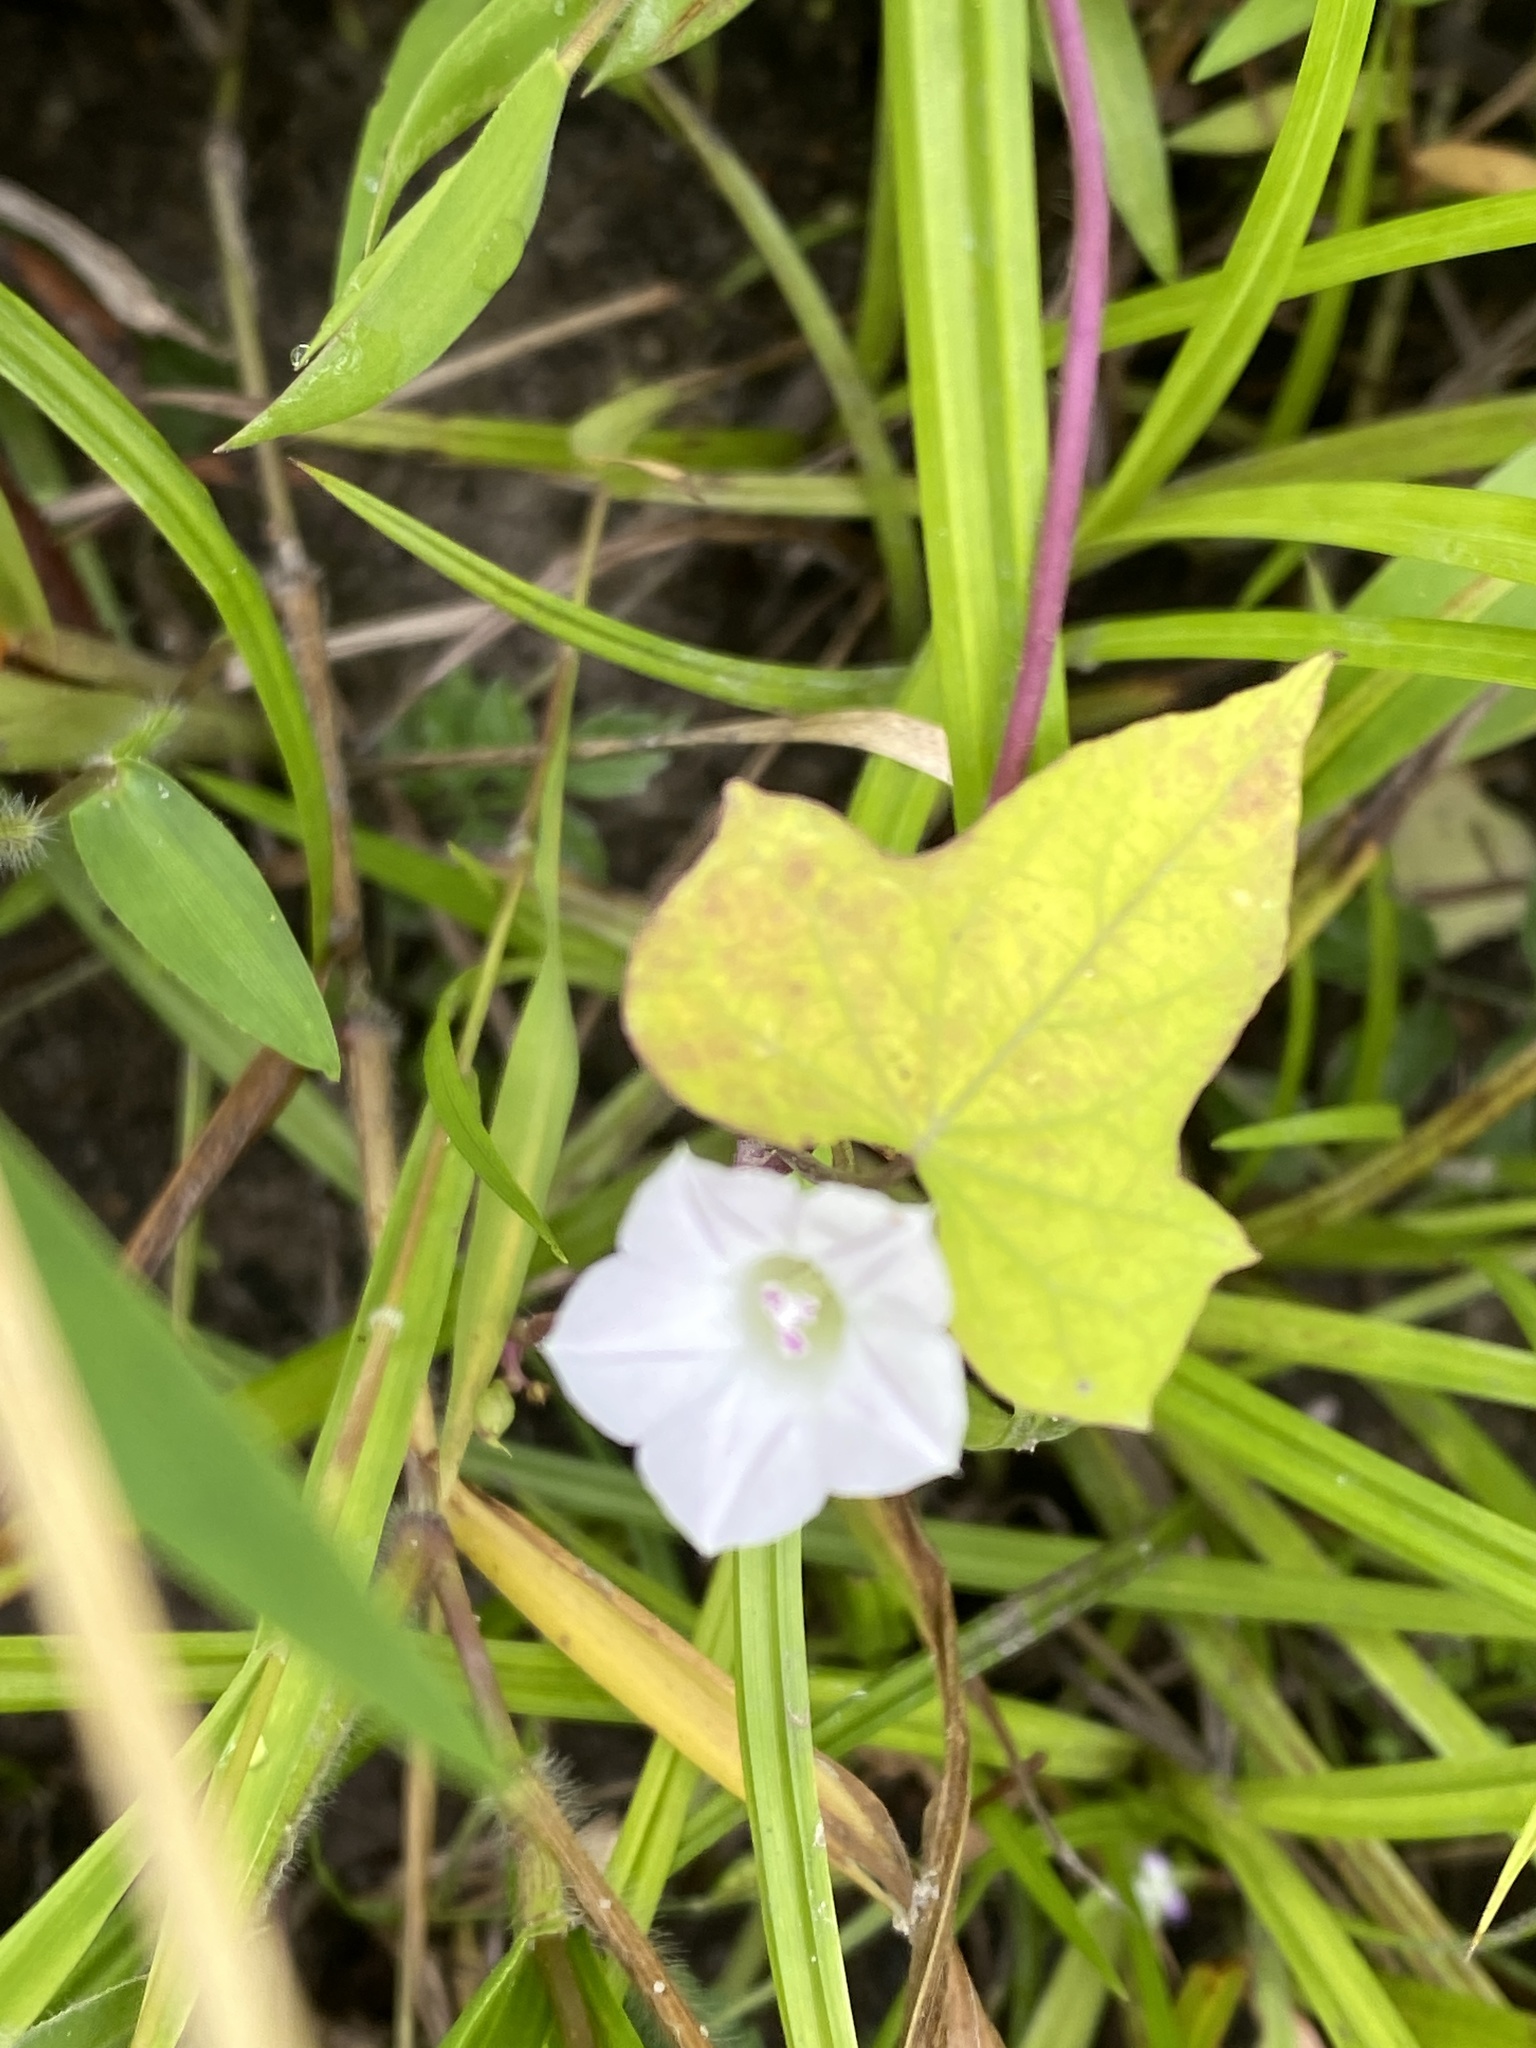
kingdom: Plantae
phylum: Tracheophyta
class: Magnoliopsida
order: Solanales
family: Convolvulaceae
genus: Ipomoea
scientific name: Ipomoea lacunosa
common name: White morning-glory
